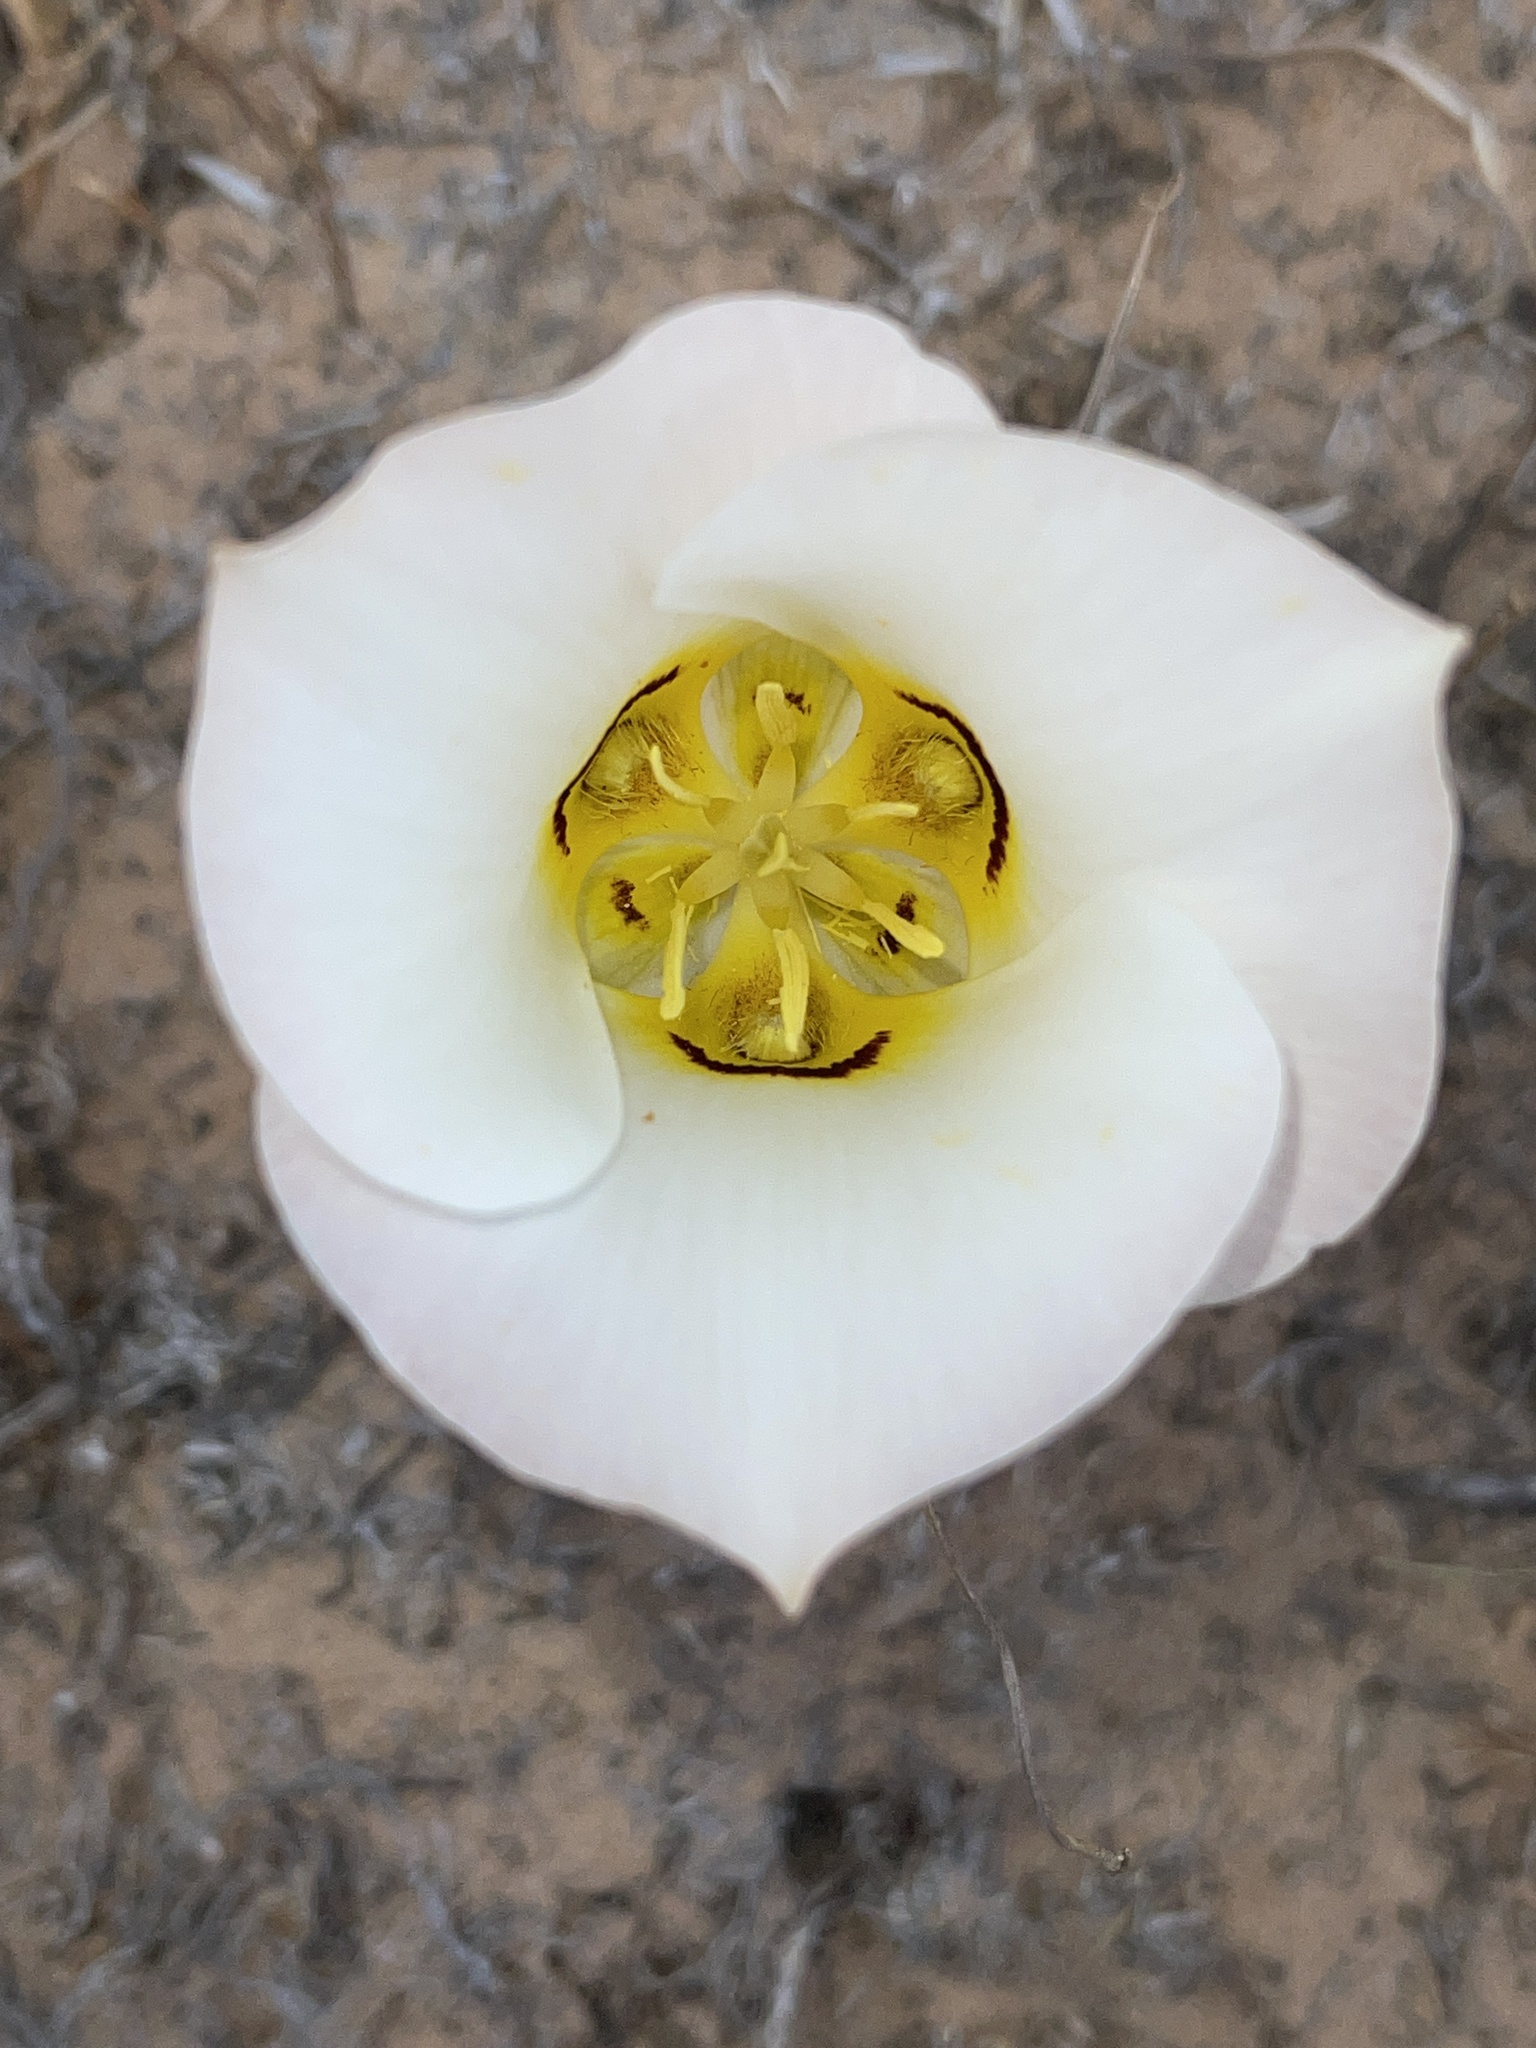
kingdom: Plantae
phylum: Tracheophyta
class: Liliopsida
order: Liliales
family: Liliaceae
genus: Calochortus
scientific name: Calochortus nuttallii
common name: Sego-lily
